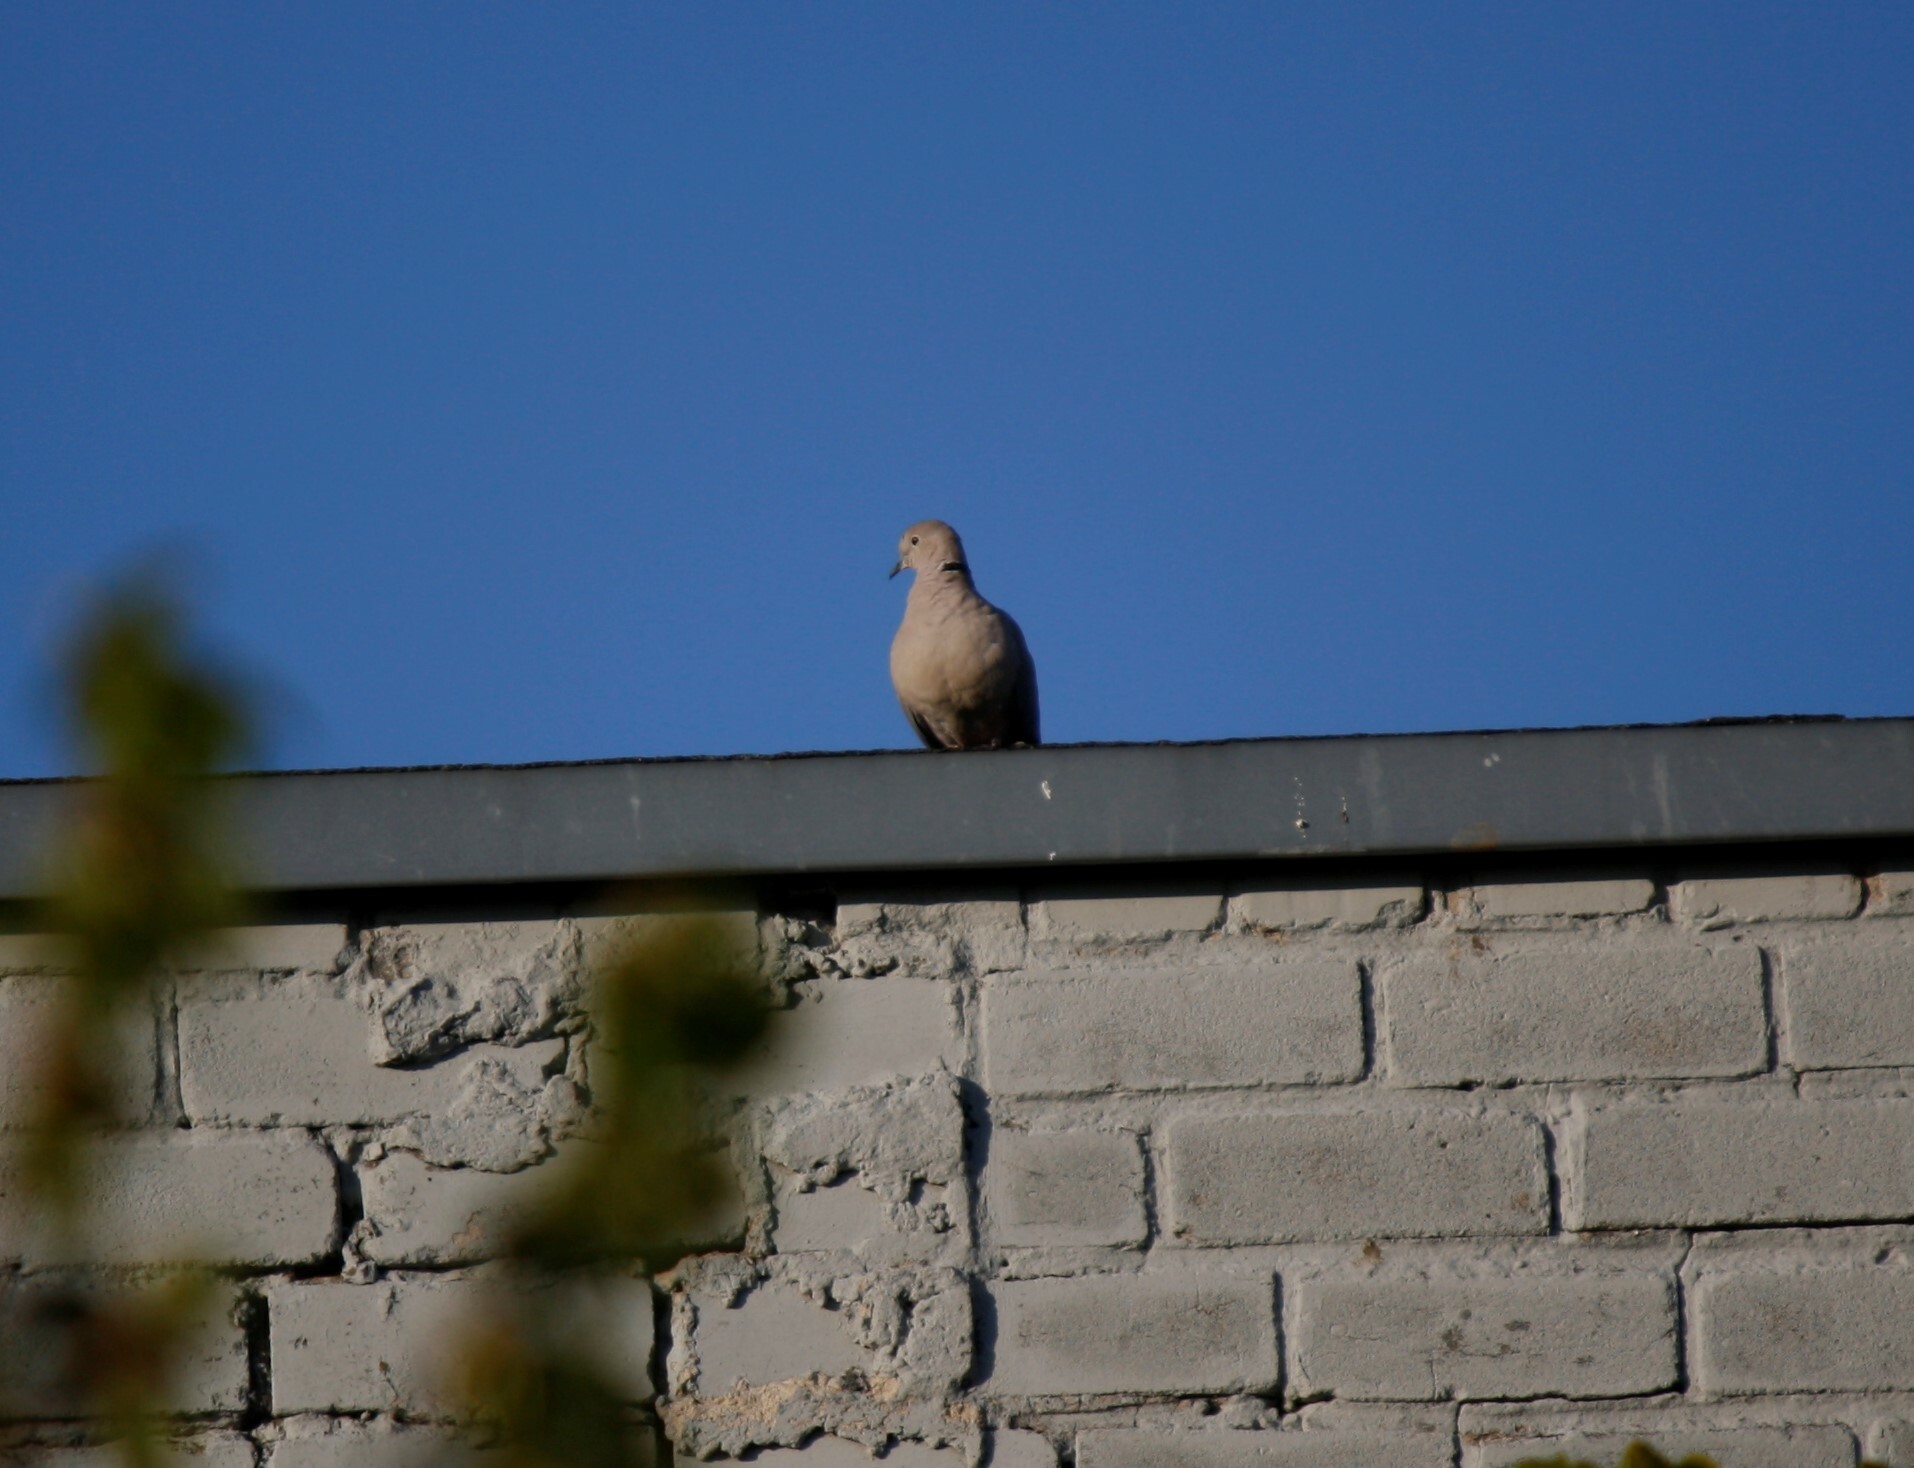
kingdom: Animalia
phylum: Chordata
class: Aves
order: Columbiformes
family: Columbidae
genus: Streptopelia
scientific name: Streptopelia decaocto
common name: Eurasian collared dove
